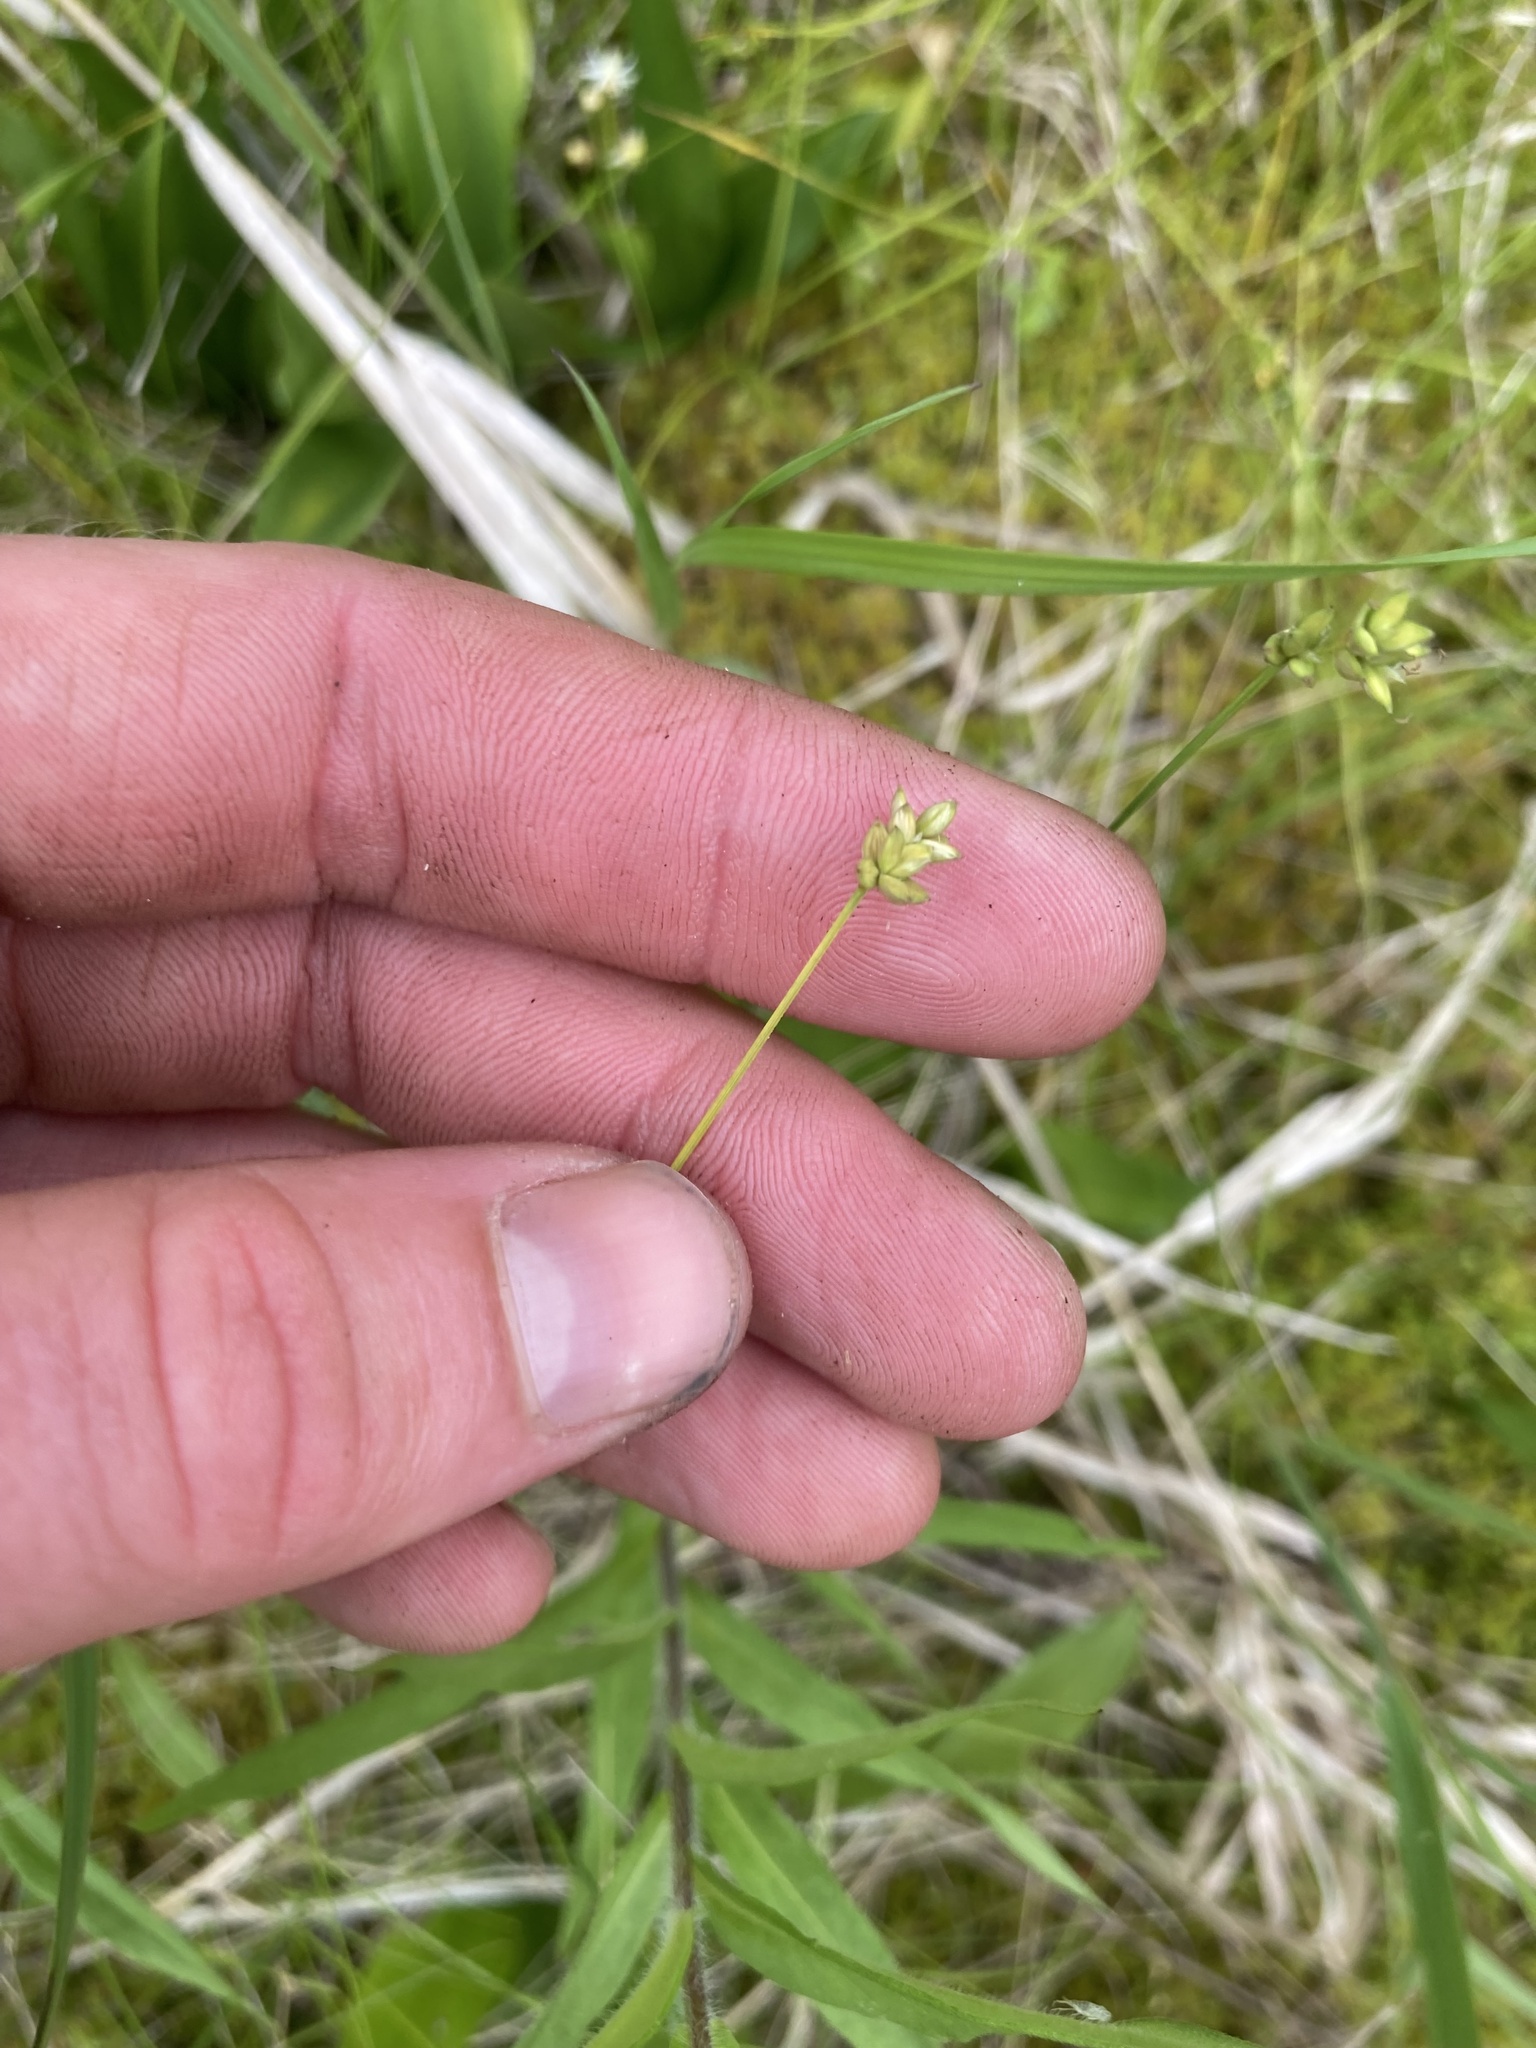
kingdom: Plantae
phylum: Tracheophyta
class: Liliopsida
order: Poales
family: Cyperaceae
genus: Carex
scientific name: Carex tenuiflora
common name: Sparse-flowered sedge
